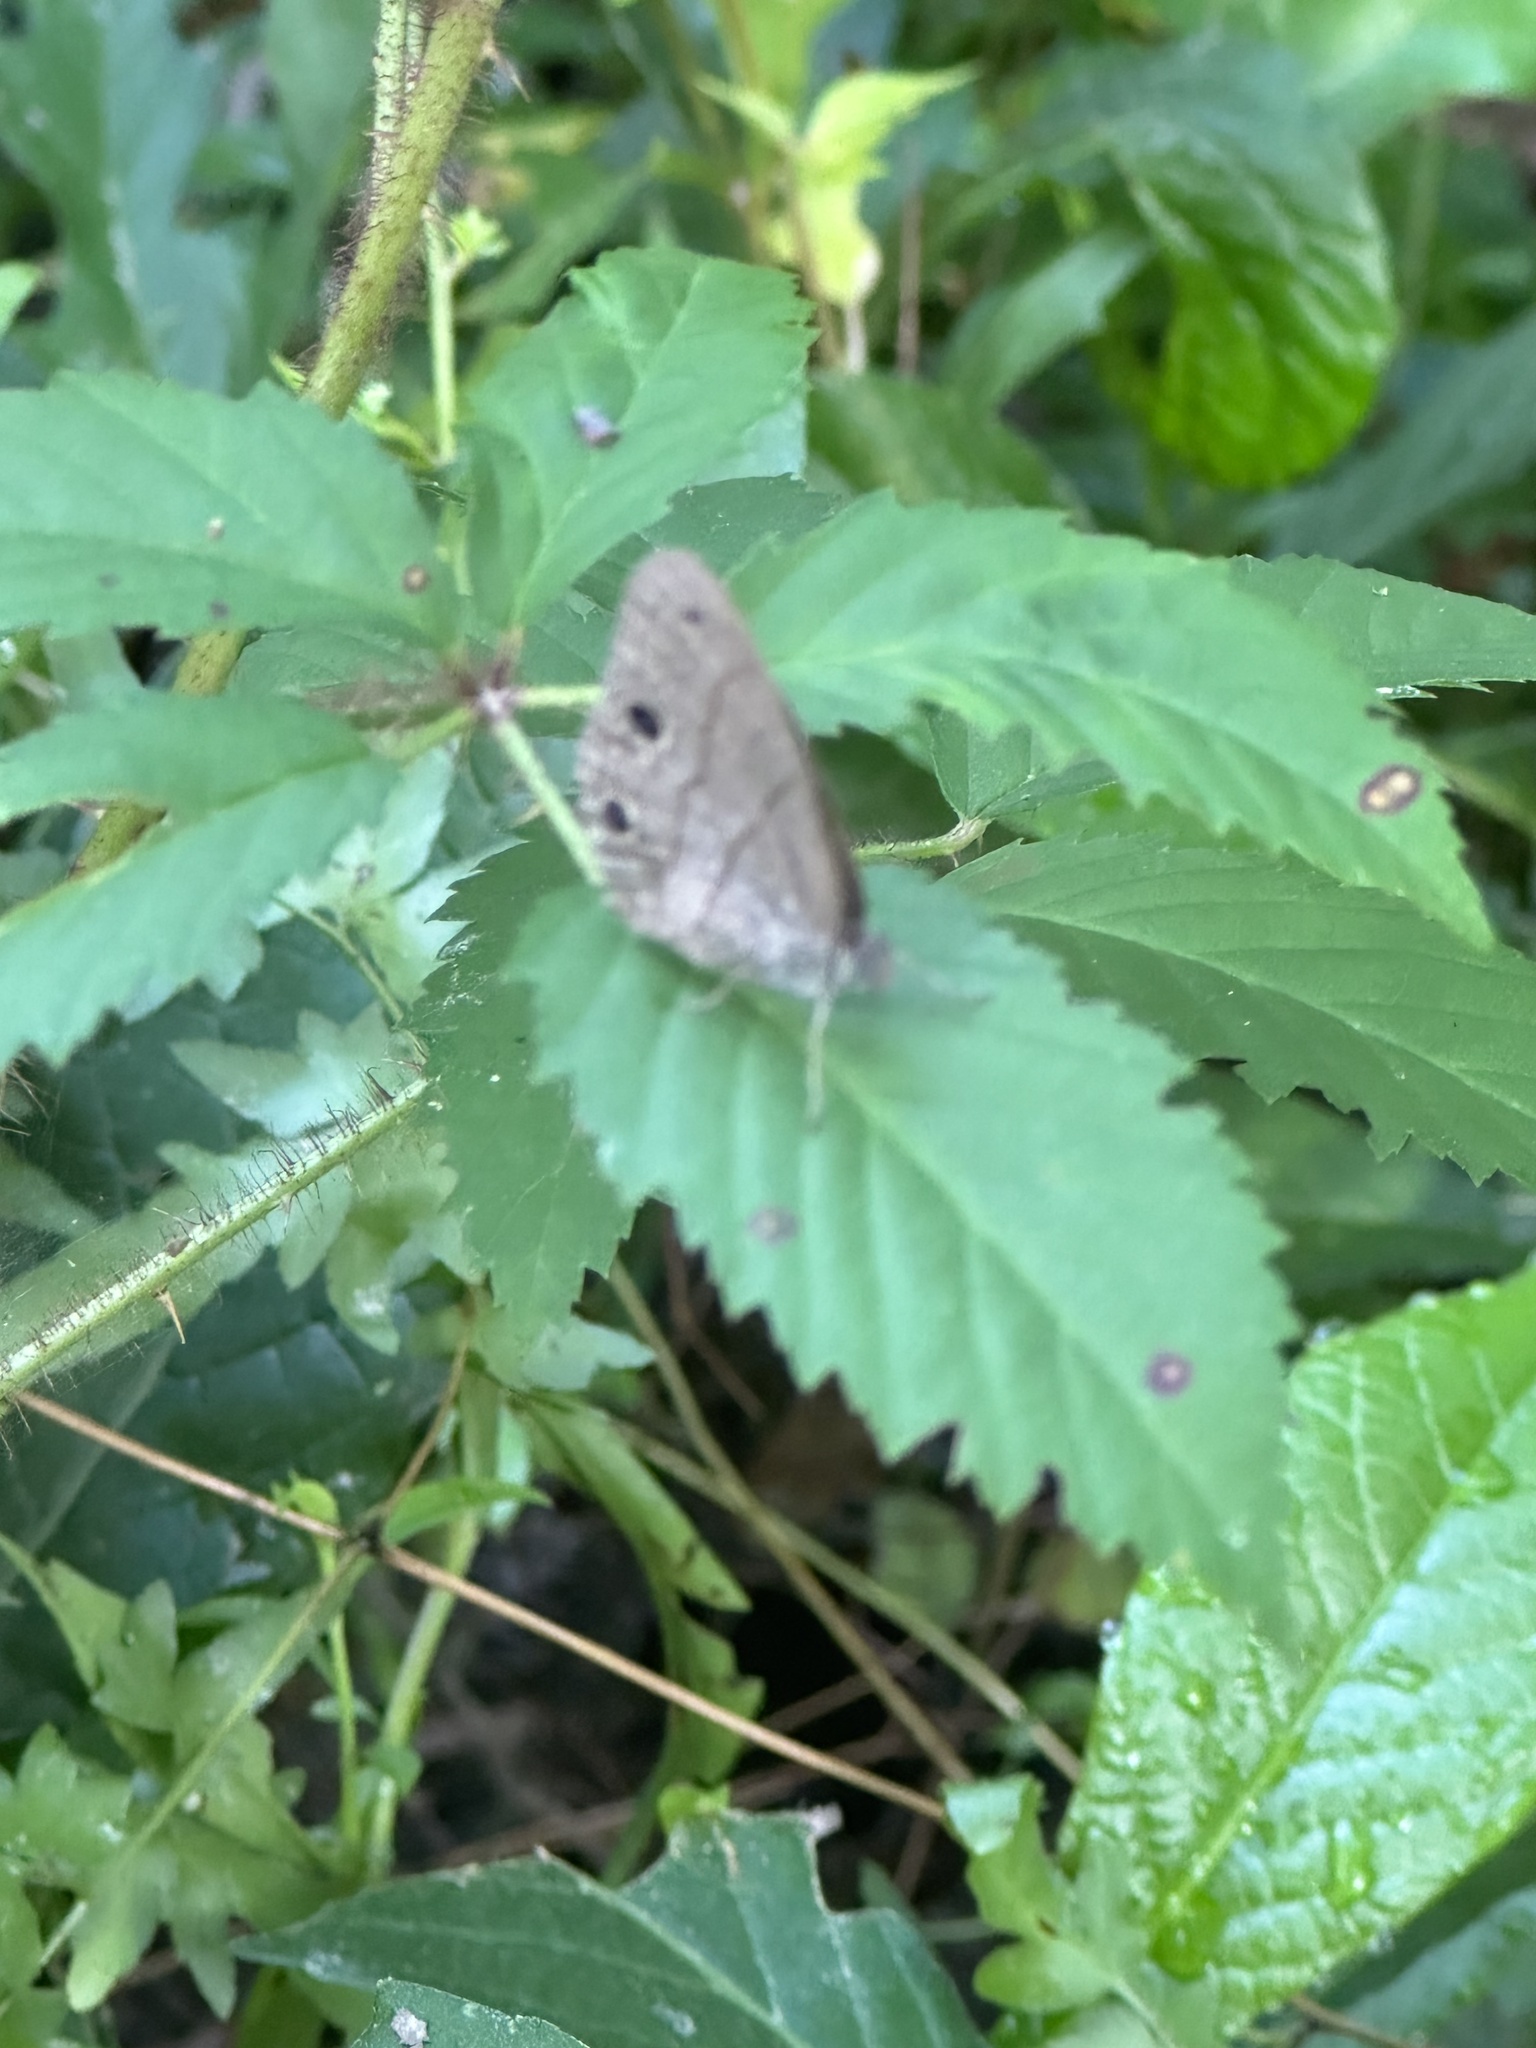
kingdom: Animalia
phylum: Arthropoda
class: Insecta
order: Lepidoptera
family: Nymphalidae
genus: Hermeuptychia
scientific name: Hermeuptychia hermes
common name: Hermes satyr
